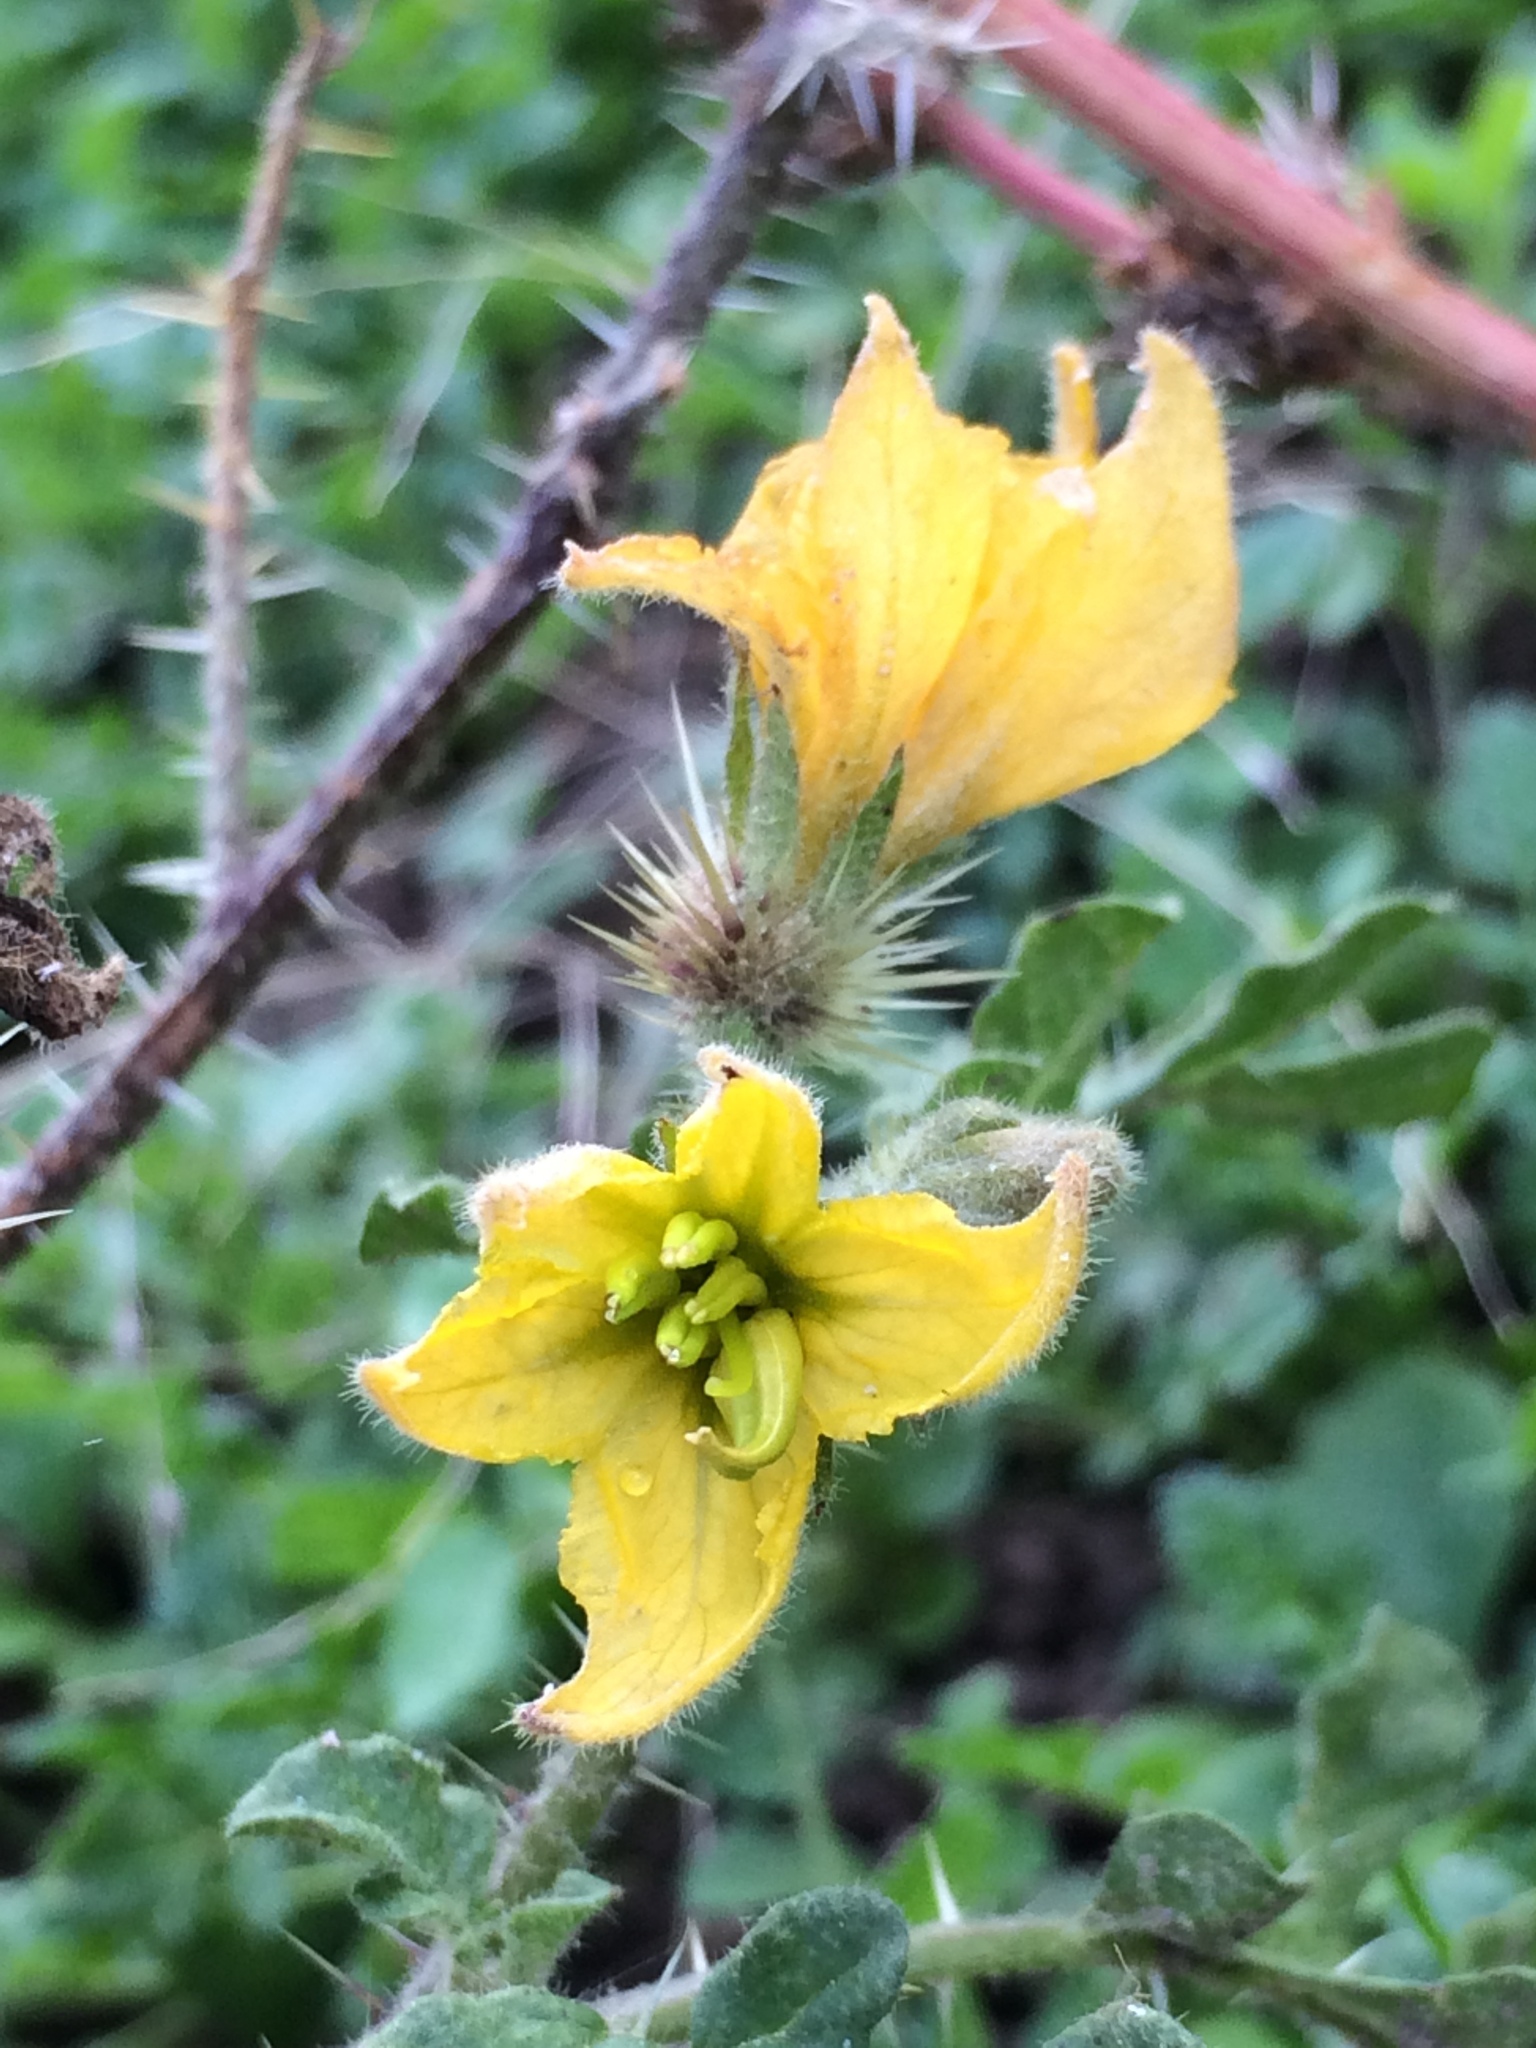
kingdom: Plantae
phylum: Tracheophyta
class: Magnoliopsida
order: Solanales
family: Solanaceae
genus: Solanum
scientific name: Solanum angustifolium
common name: Buffalobur nightshade
